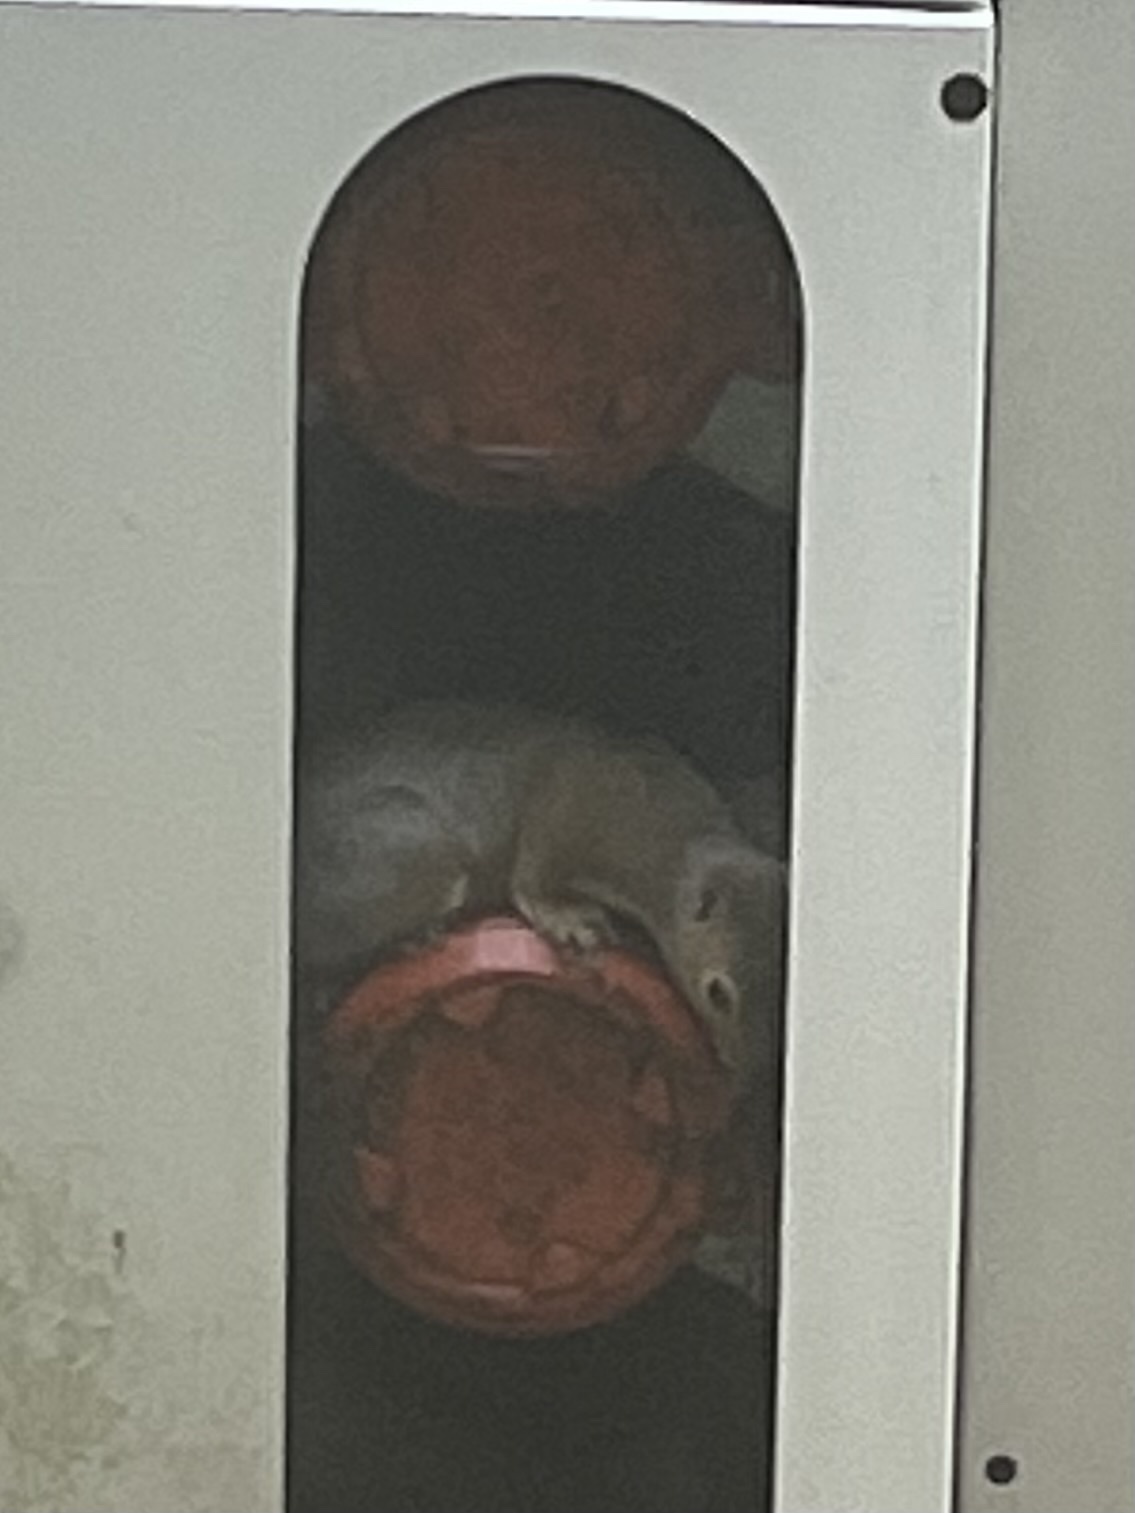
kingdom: Animalia
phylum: Chordata
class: Mammalia
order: Rodentia
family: Sciuridae
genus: Sciurus
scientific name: Sciurus carolinensis
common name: Eastern gray squirrel
